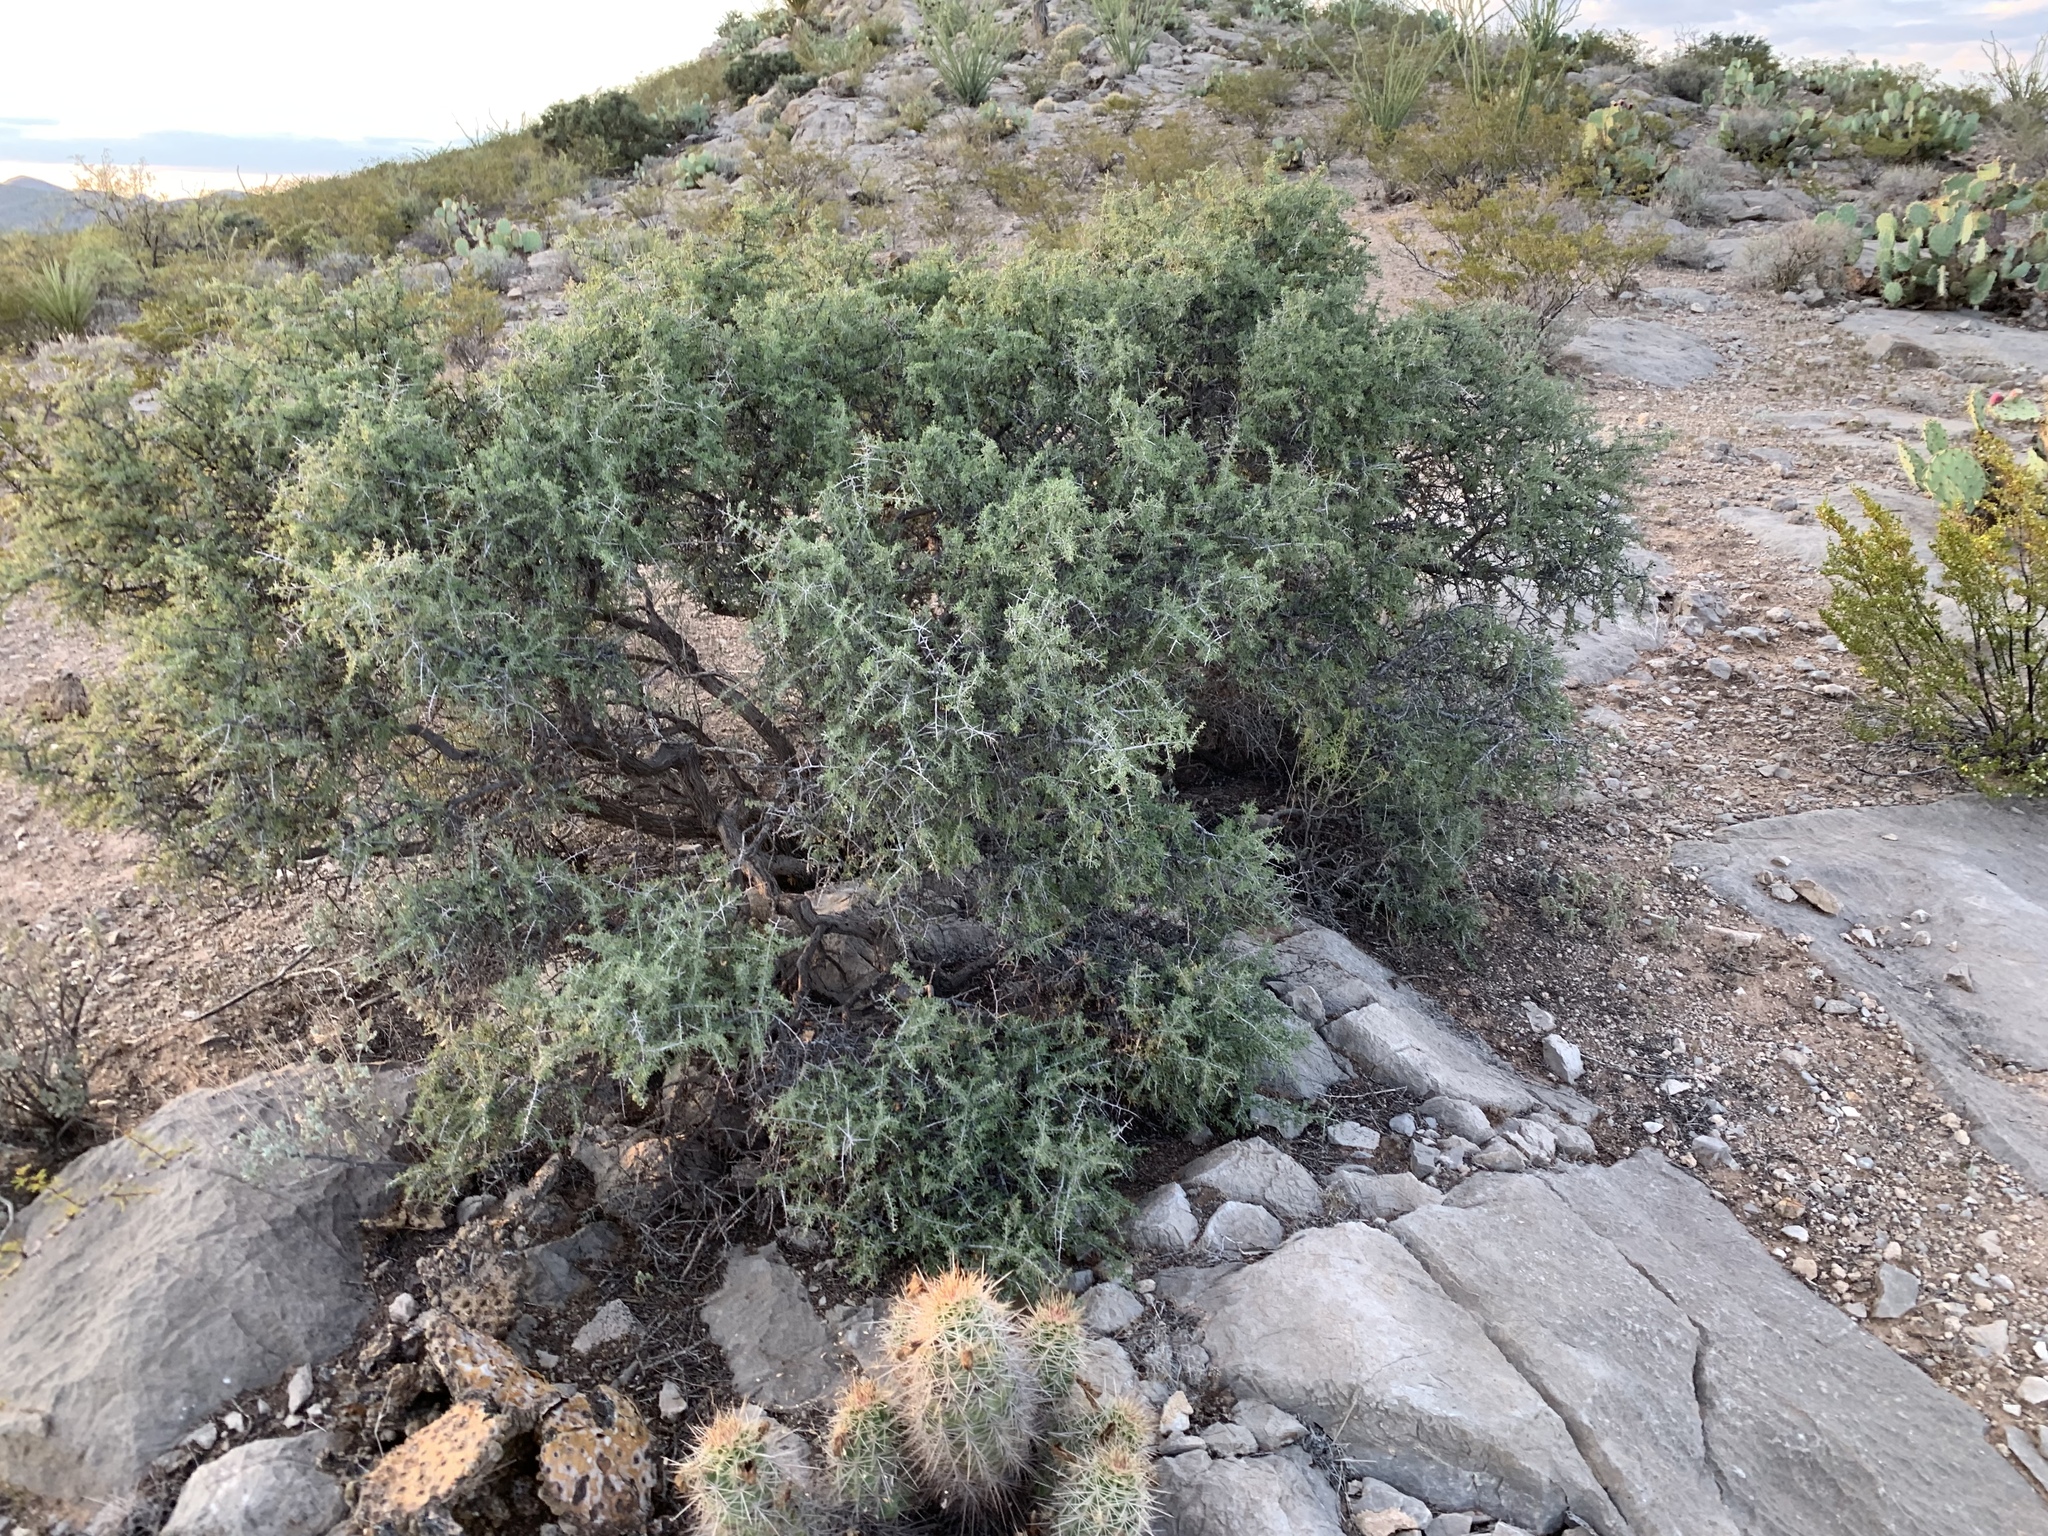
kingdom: Plantae
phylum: Tracheophyta
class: Magnoliopsida
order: Rosales
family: Rhamnaceae
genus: Condalia
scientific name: Condalia warnockii
